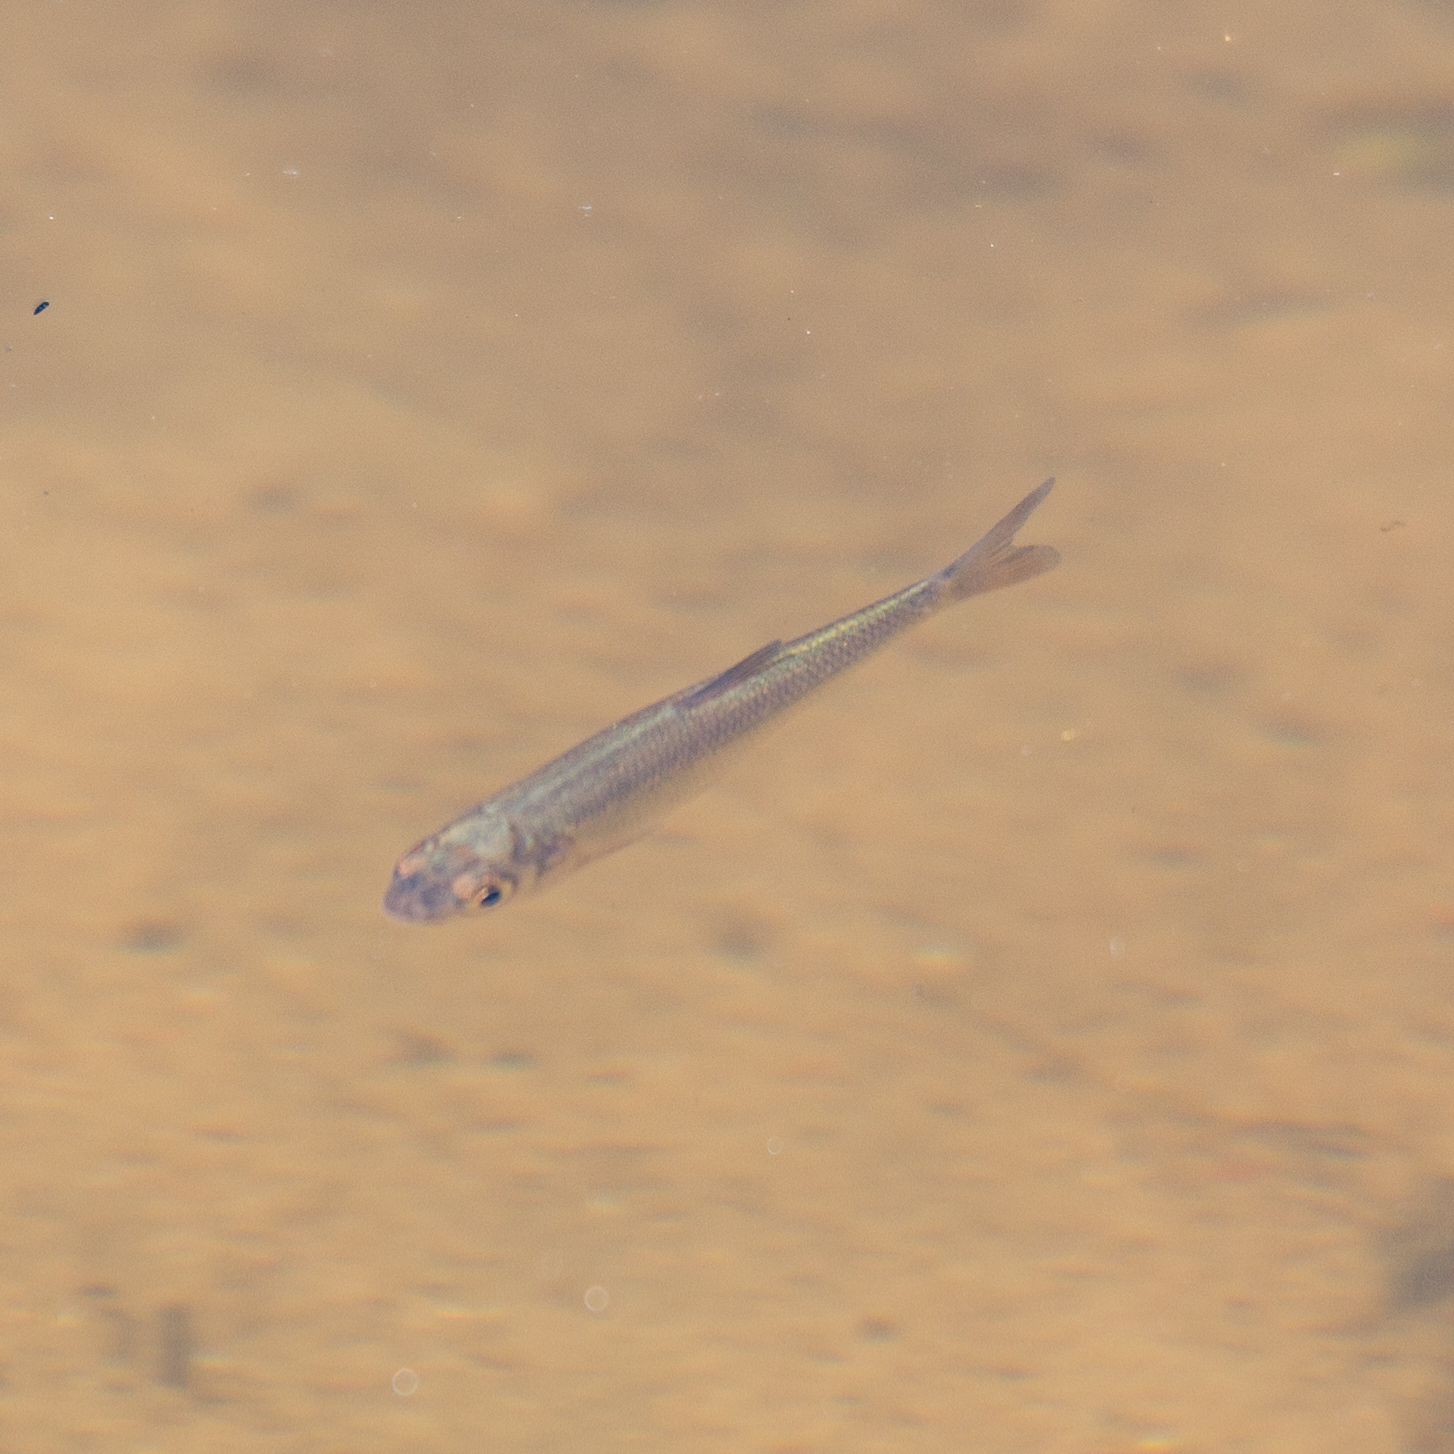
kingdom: Animalia
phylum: Chordata
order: Cypriniformes
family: Cyprinidae
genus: Squalius
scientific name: Squalius cephalus
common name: Chub
